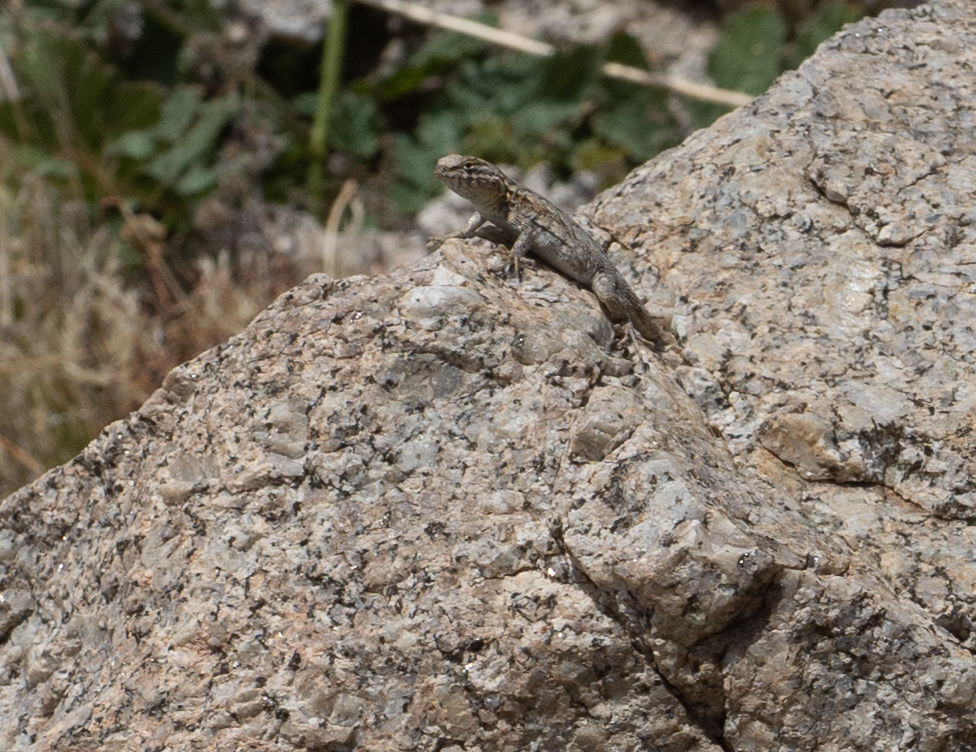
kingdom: Animalia
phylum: Chordata
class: Squamata
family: Phrynosomatidae
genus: Uta
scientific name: Uta stansburiana
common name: Side-blotched lizard
